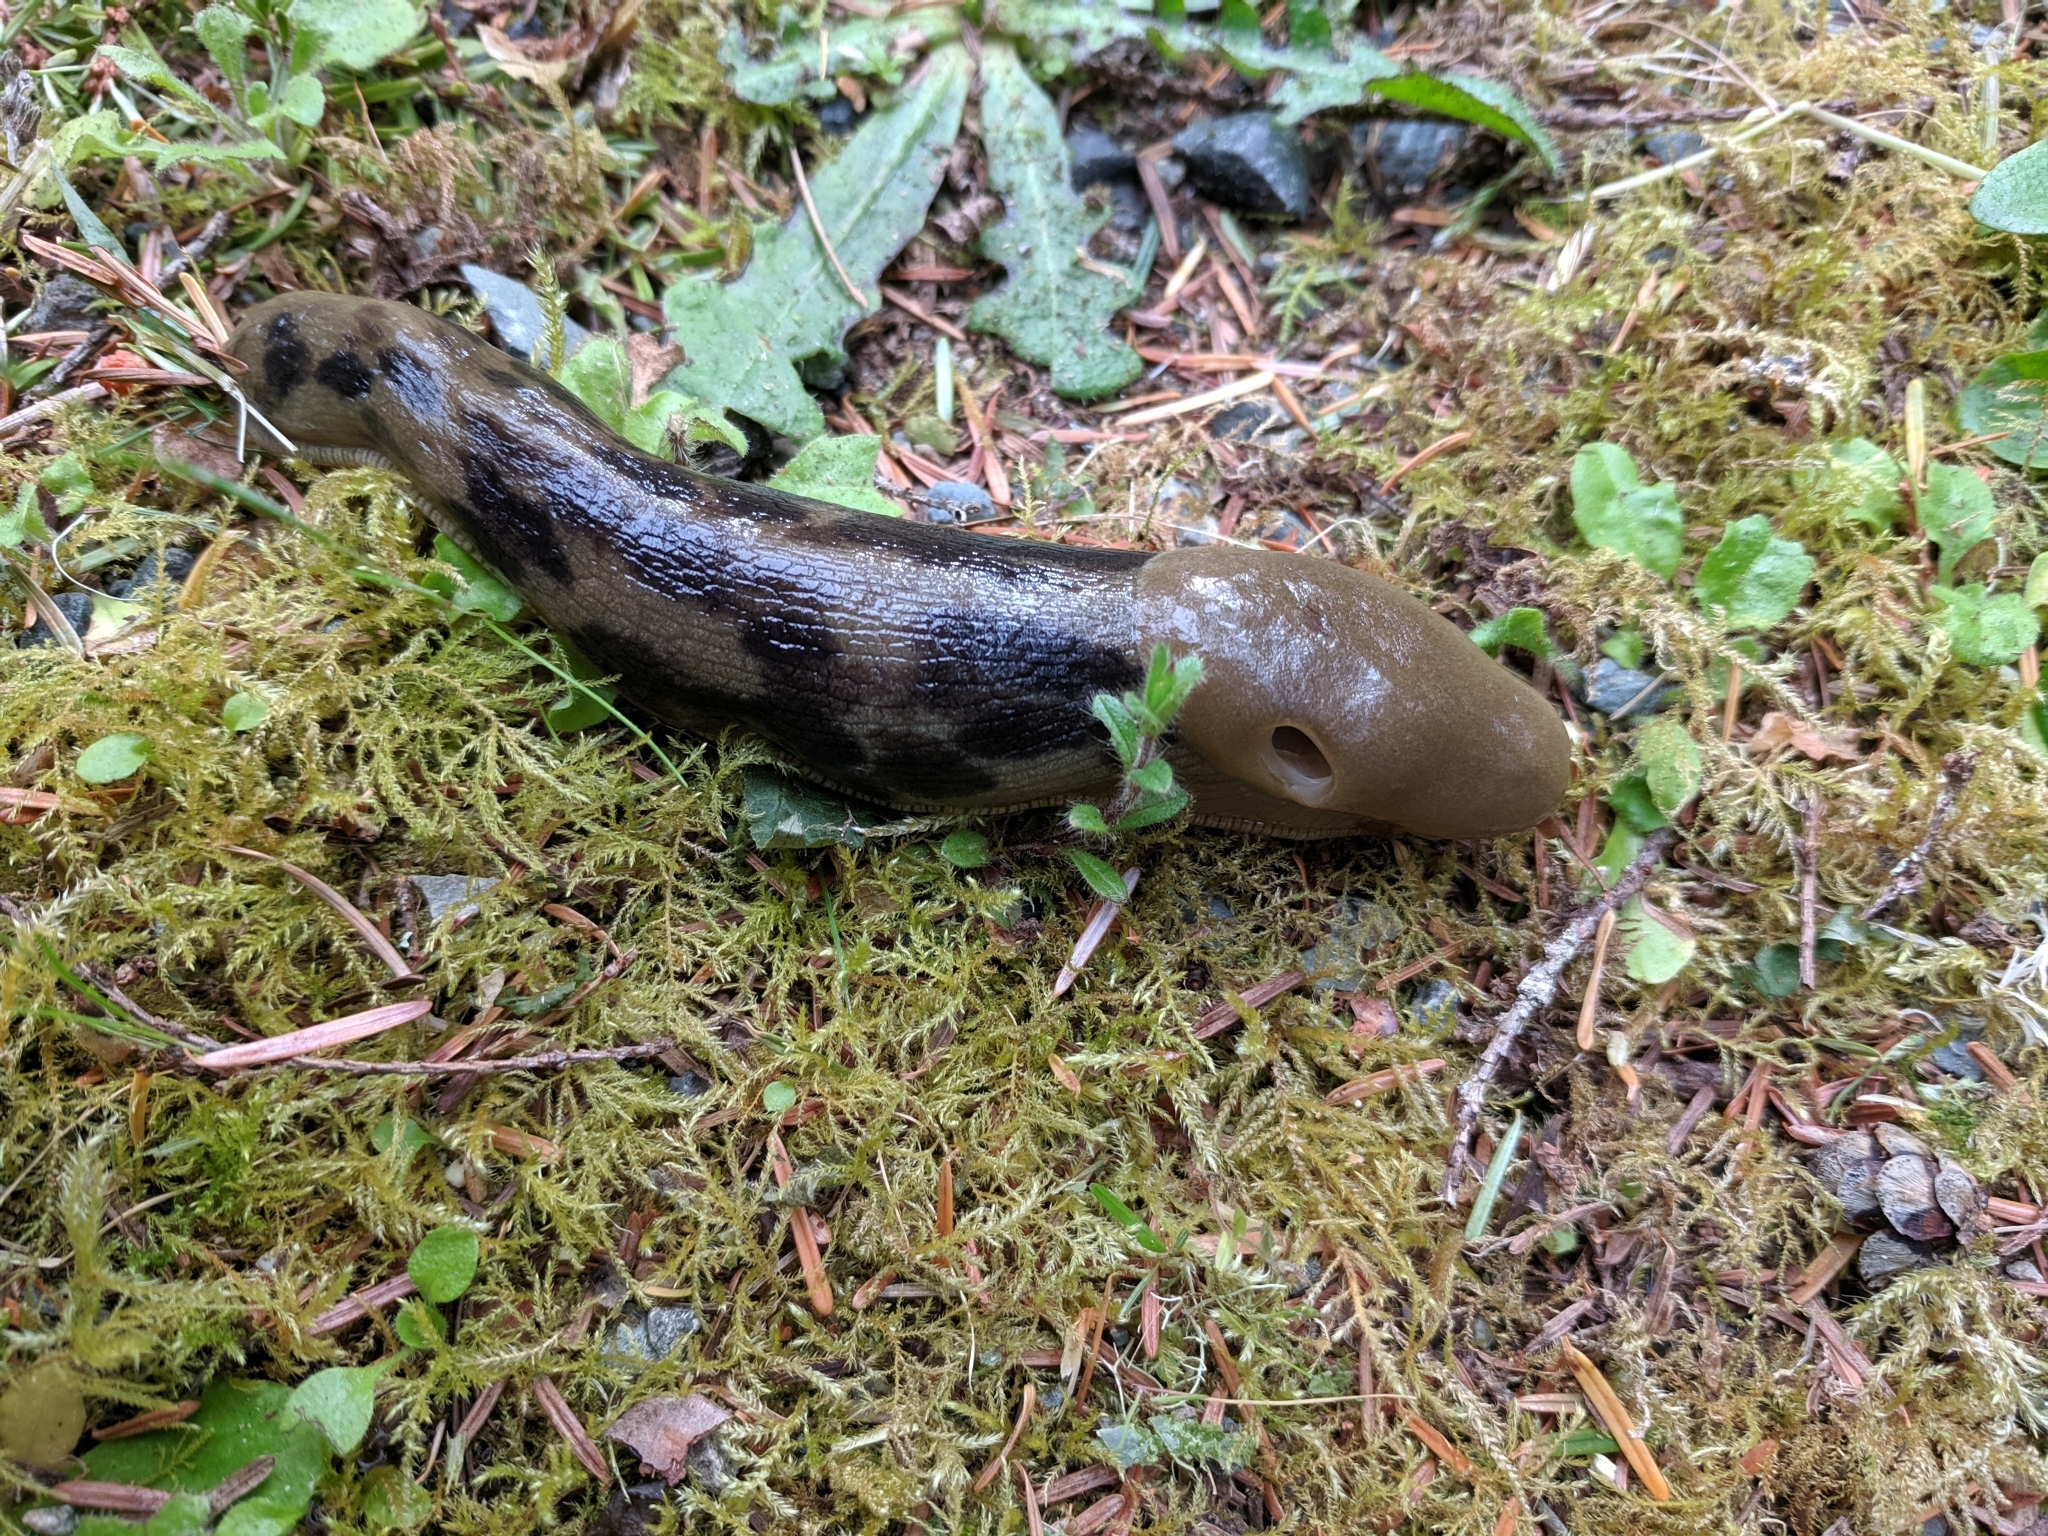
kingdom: Animalia
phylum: Mollusca
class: Gastropoda
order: Stylommatophora
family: Ariolimacidae
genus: Ariolimax
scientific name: Ariolimax columbianus
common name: Pacific banana slug
